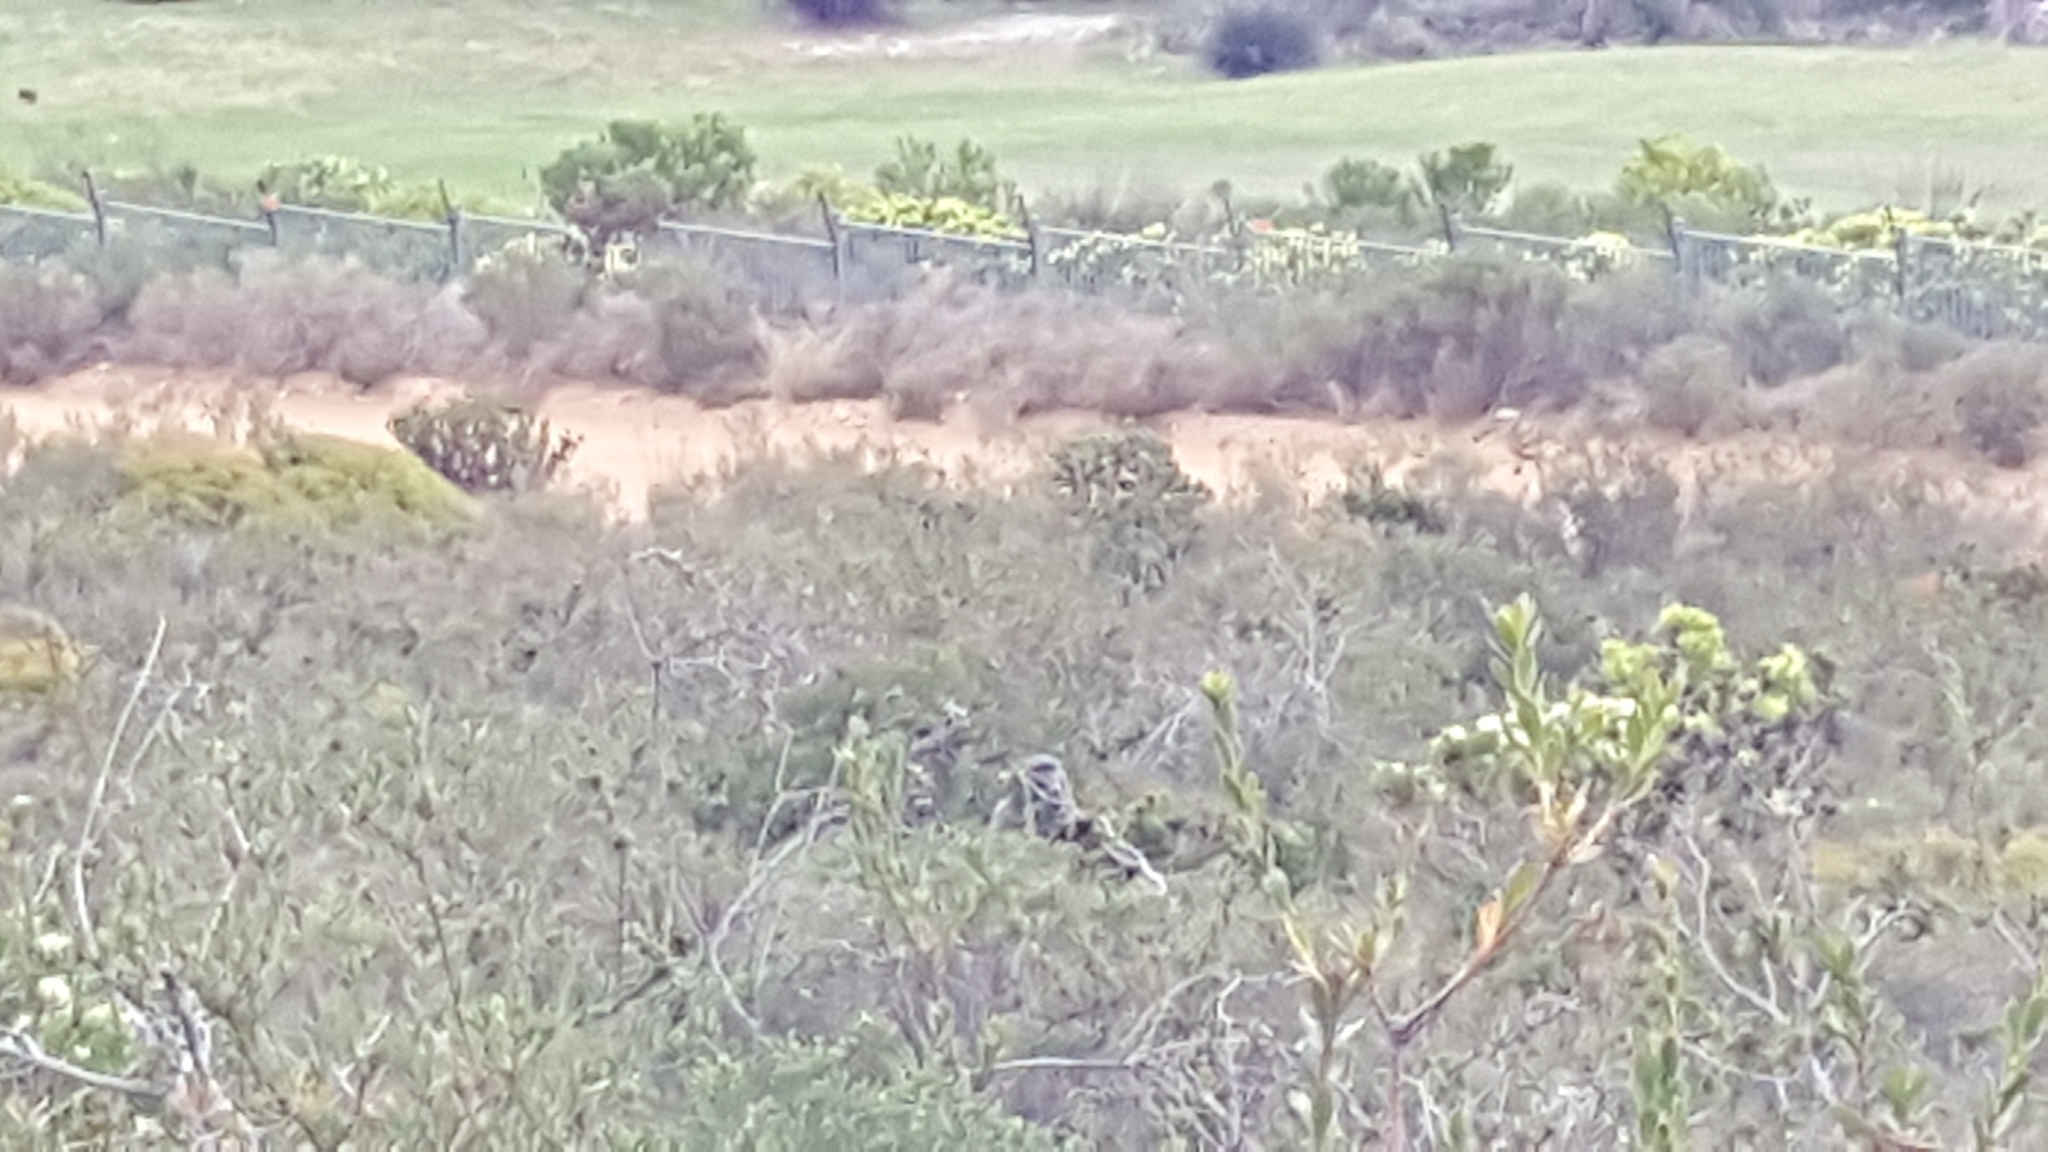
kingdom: Animalia
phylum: Chordata
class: Mammalia
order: Primates
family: Cercopithecidae
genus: Papio
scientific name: Papio ursinus
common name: Chacma baboon
